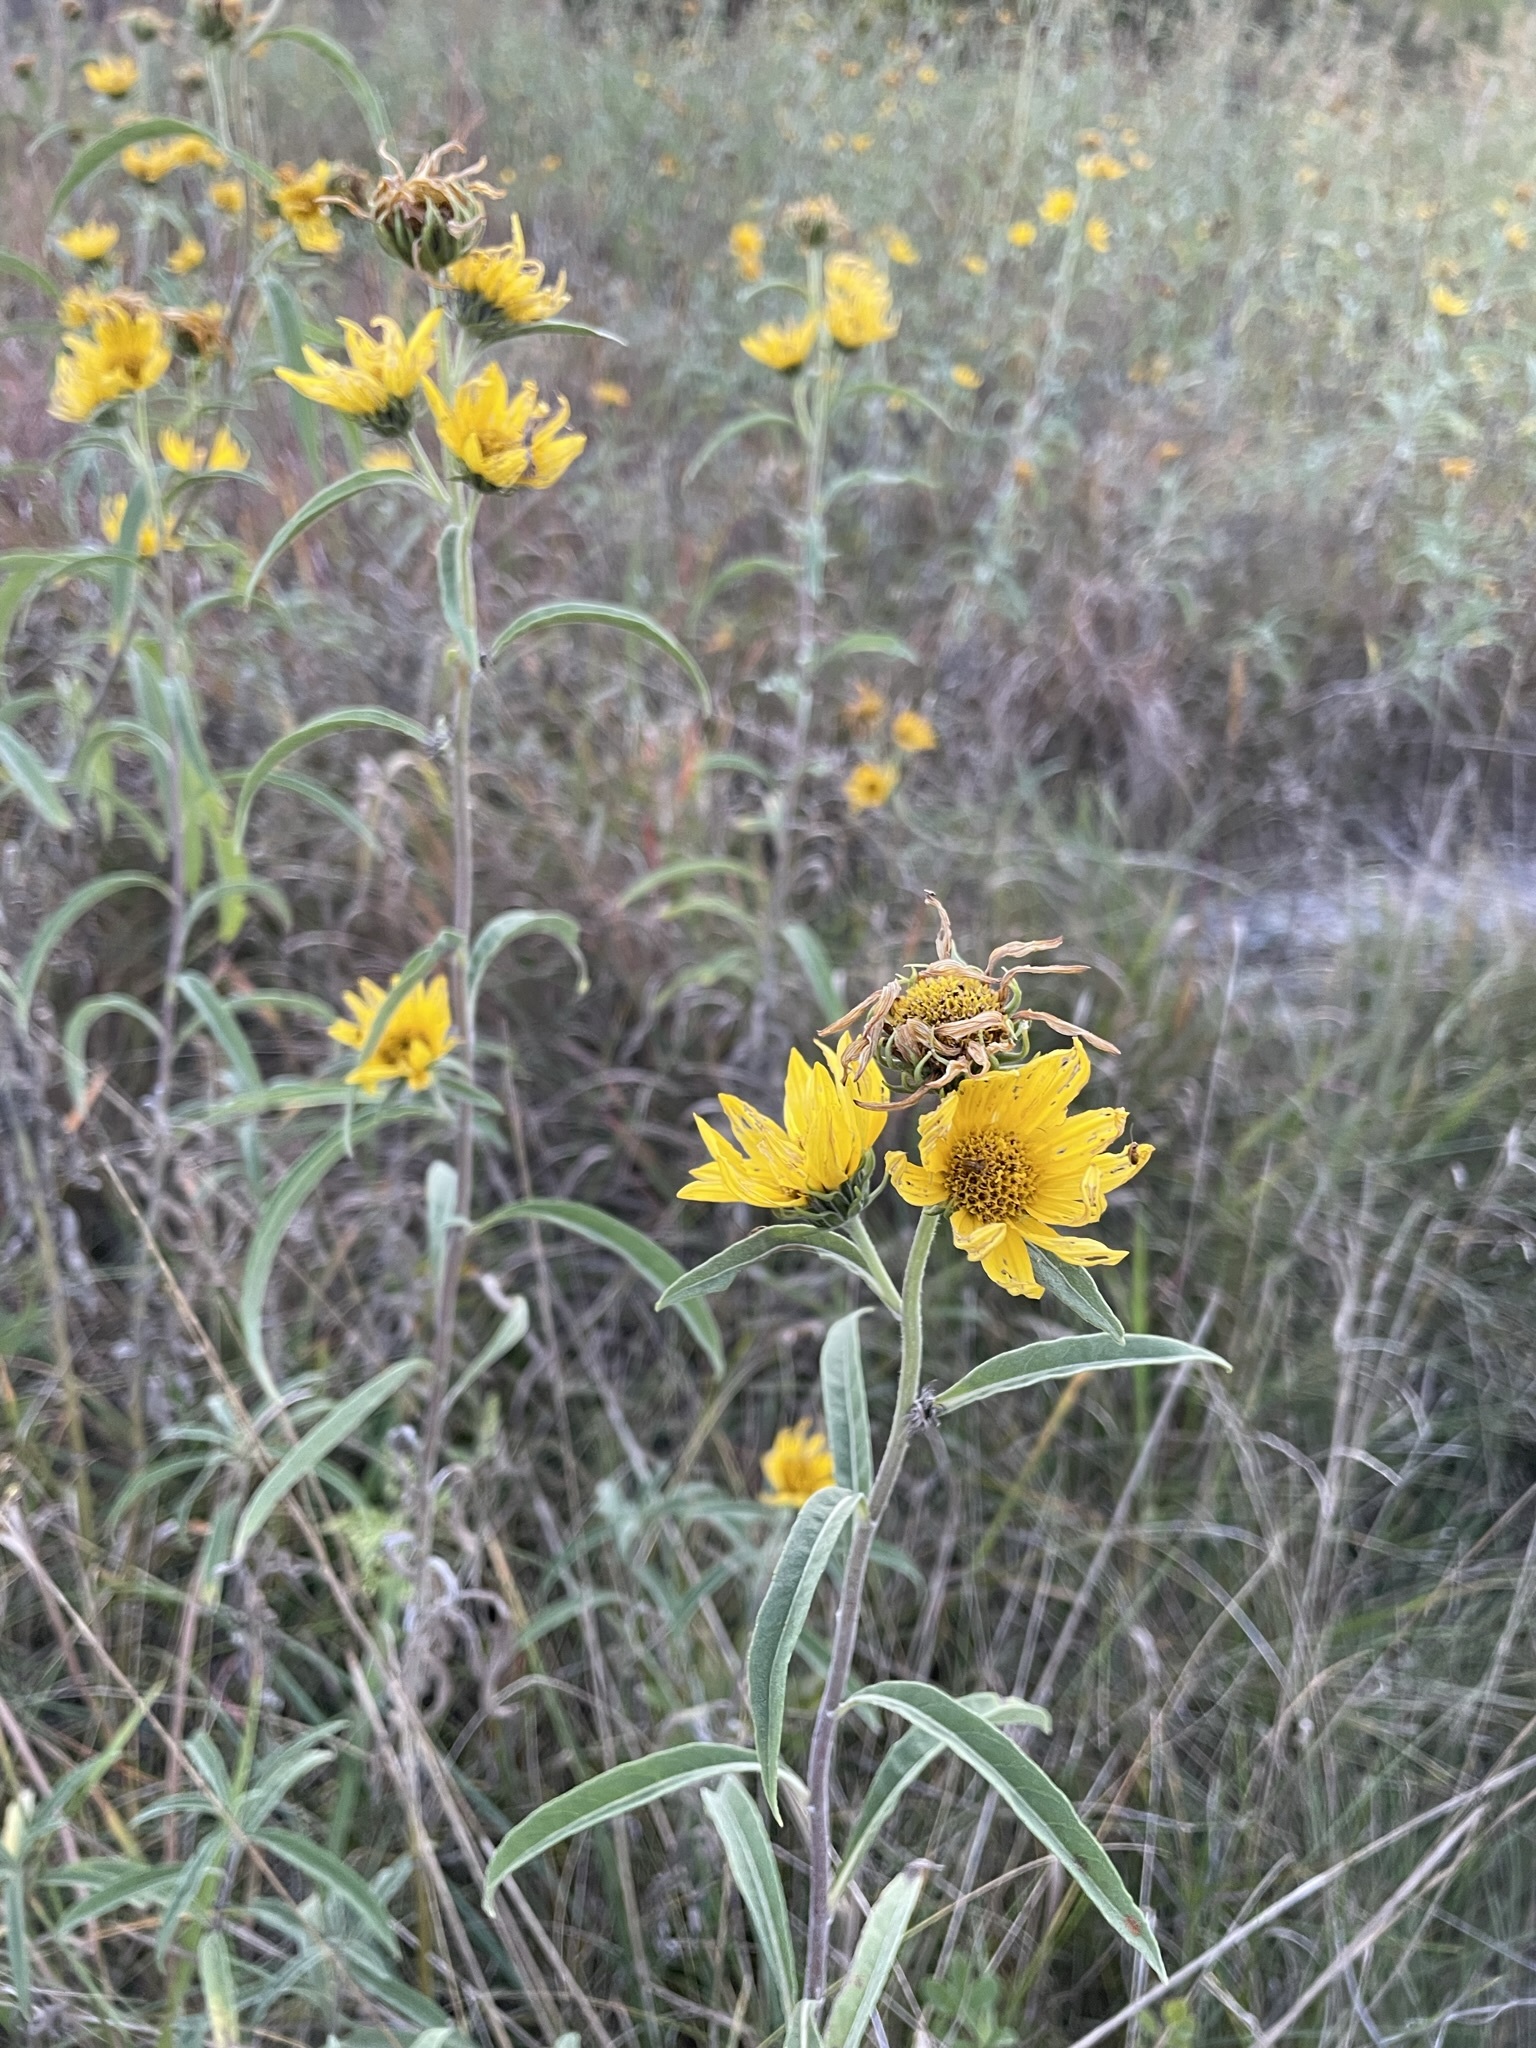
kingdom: Plantae
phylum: Tracheophyta
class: Magnoliopsida
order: Asterales
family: Asteraceae
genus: Helianthus
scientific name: Helianthus maximiliani
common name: Maximilian's sunflower
